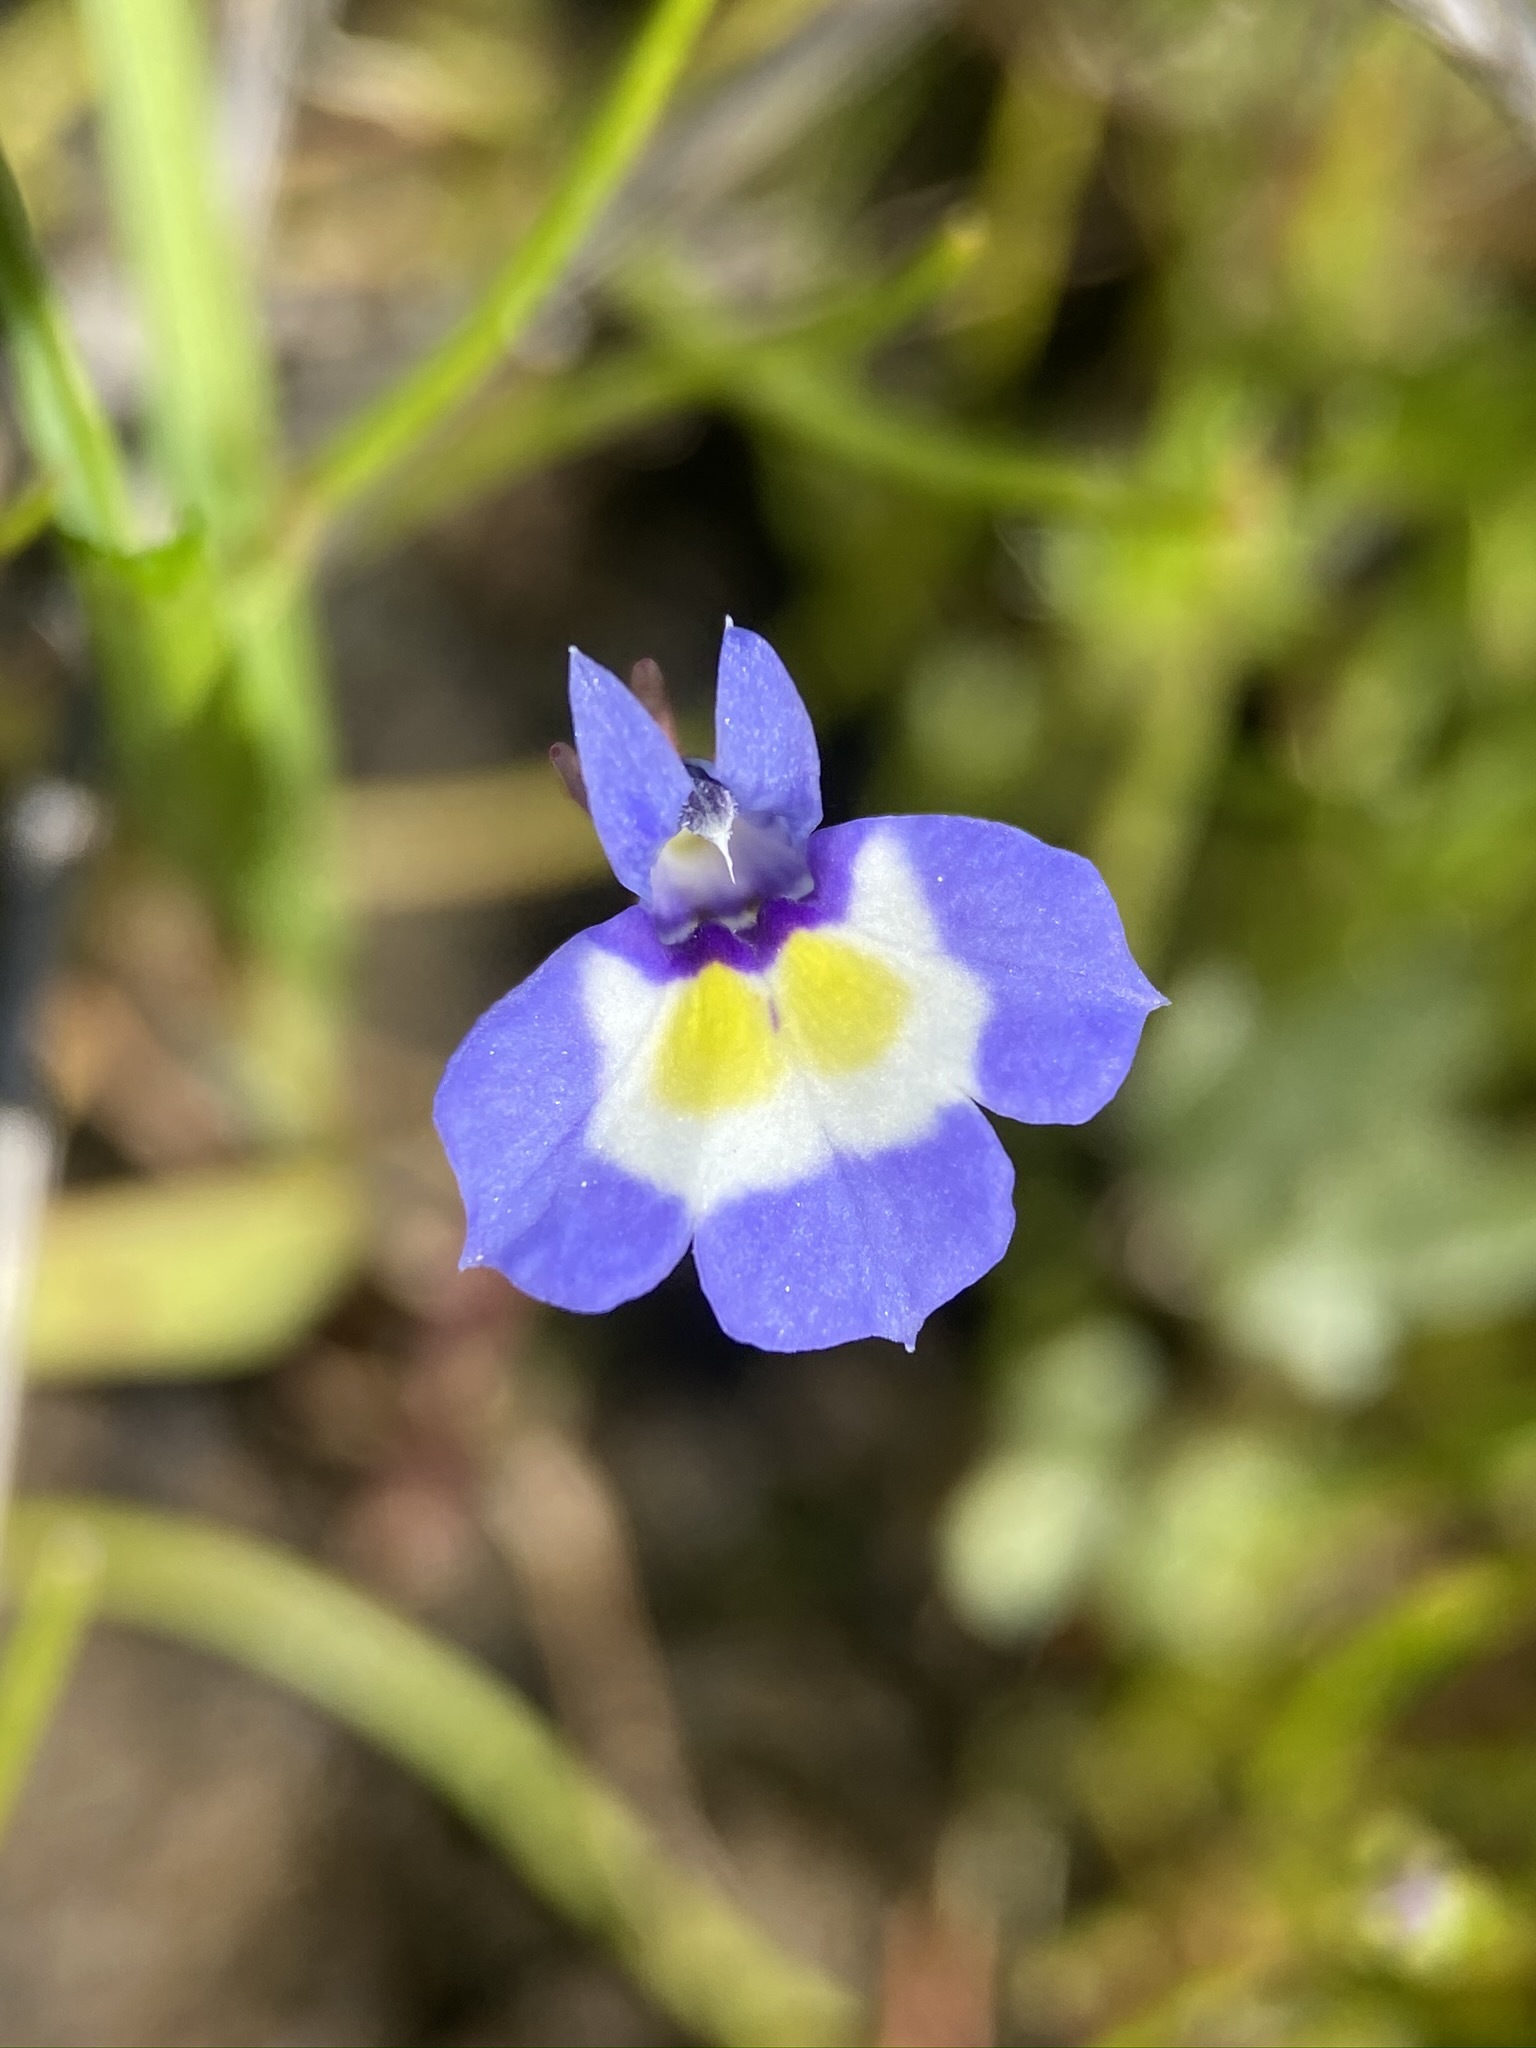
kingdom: Plantae
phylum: Tracheophyta
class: Magnoliopsida
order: Asterales
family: Campanulaceae
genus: Downingia
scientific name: Downingia bicornuta
